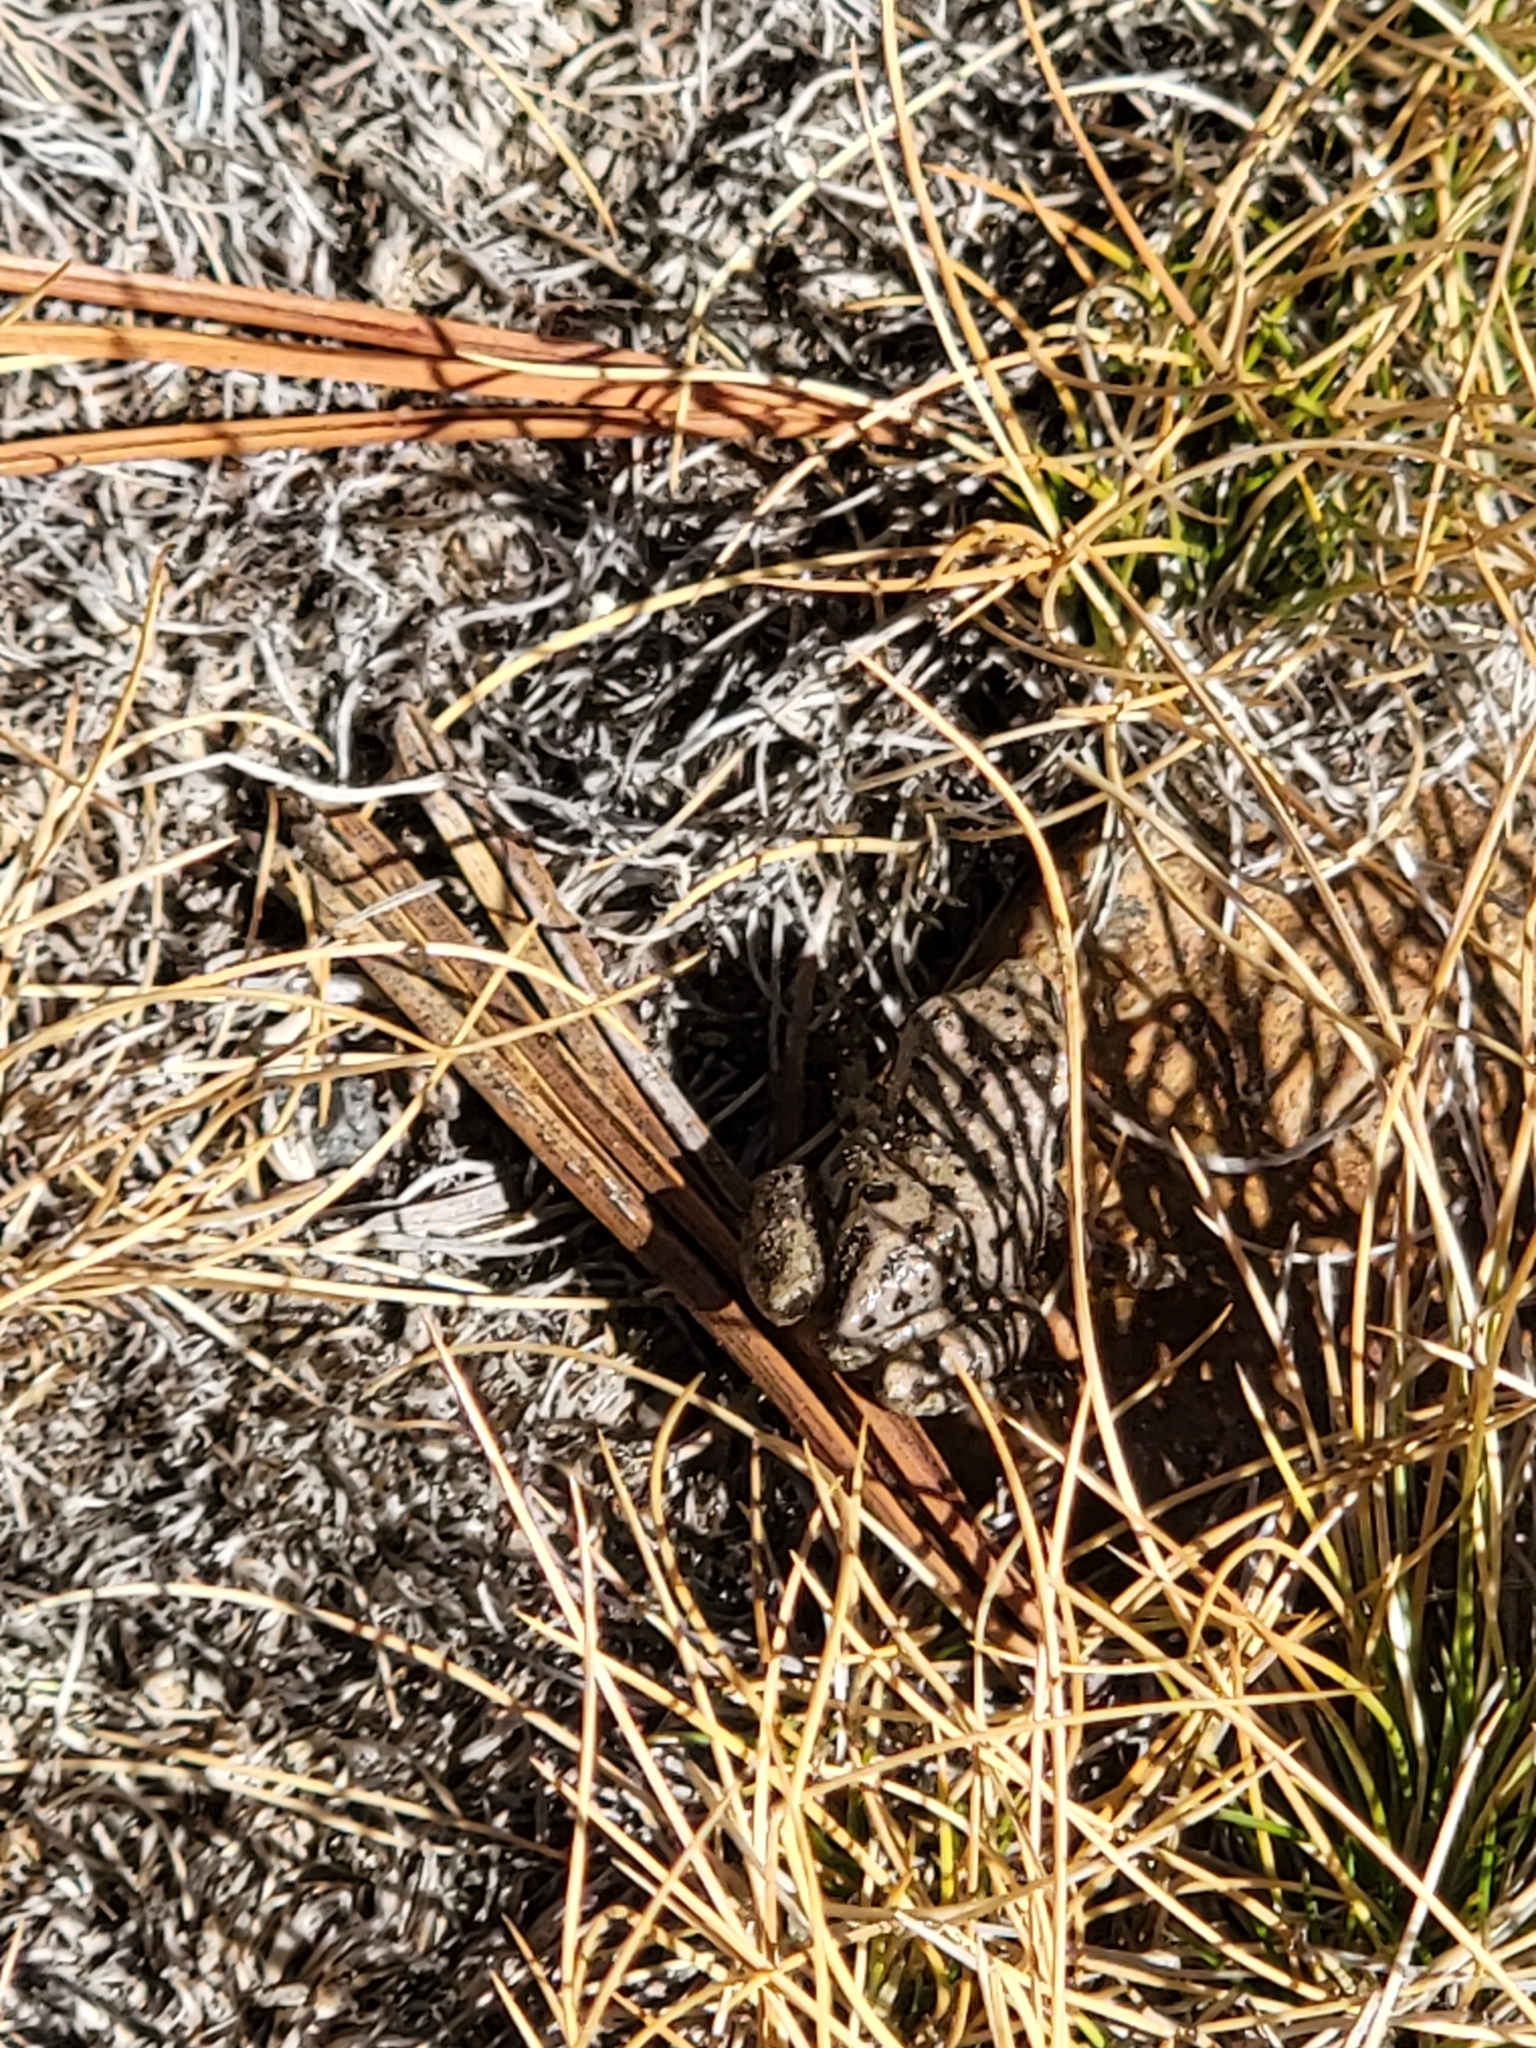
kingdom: Animalia
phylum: Chordata
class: Amphibia
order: Anura
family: Hylidae
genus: Pseudacris
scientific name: Pseudacris regilla
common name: Pacific chorus frog
